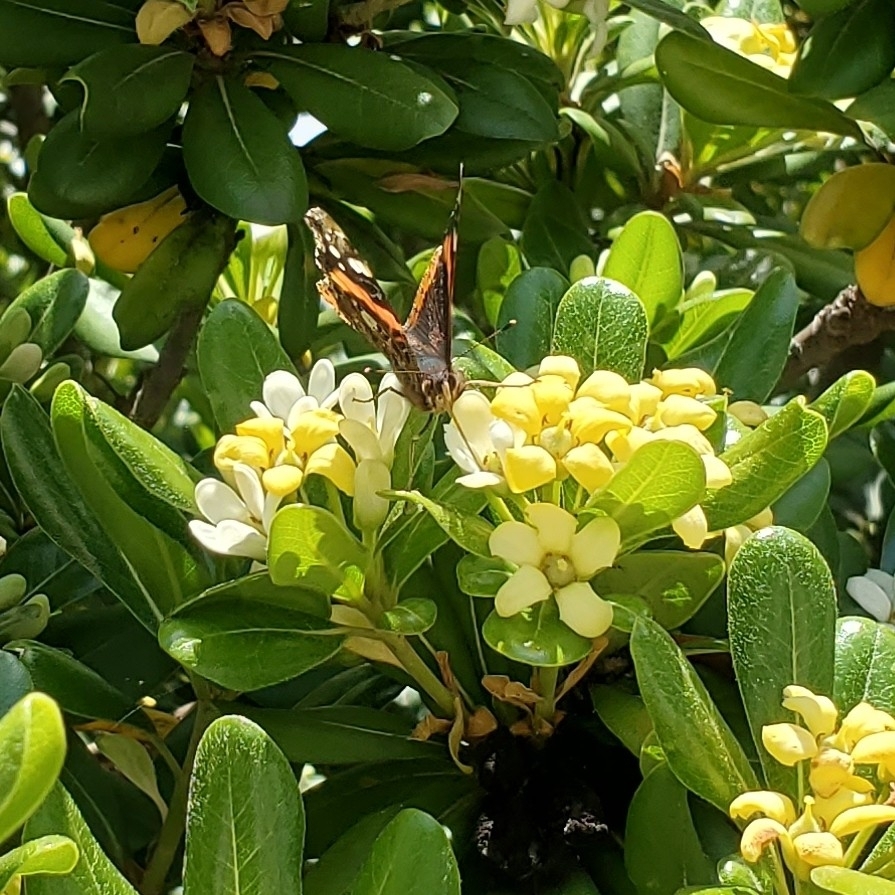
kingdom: Animalia
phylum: Arthropoda
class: Insecta
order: Lepidoptera
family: Nymphalidae
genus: Vanessa
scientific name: Vanessa atalanta
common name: Red admiral
